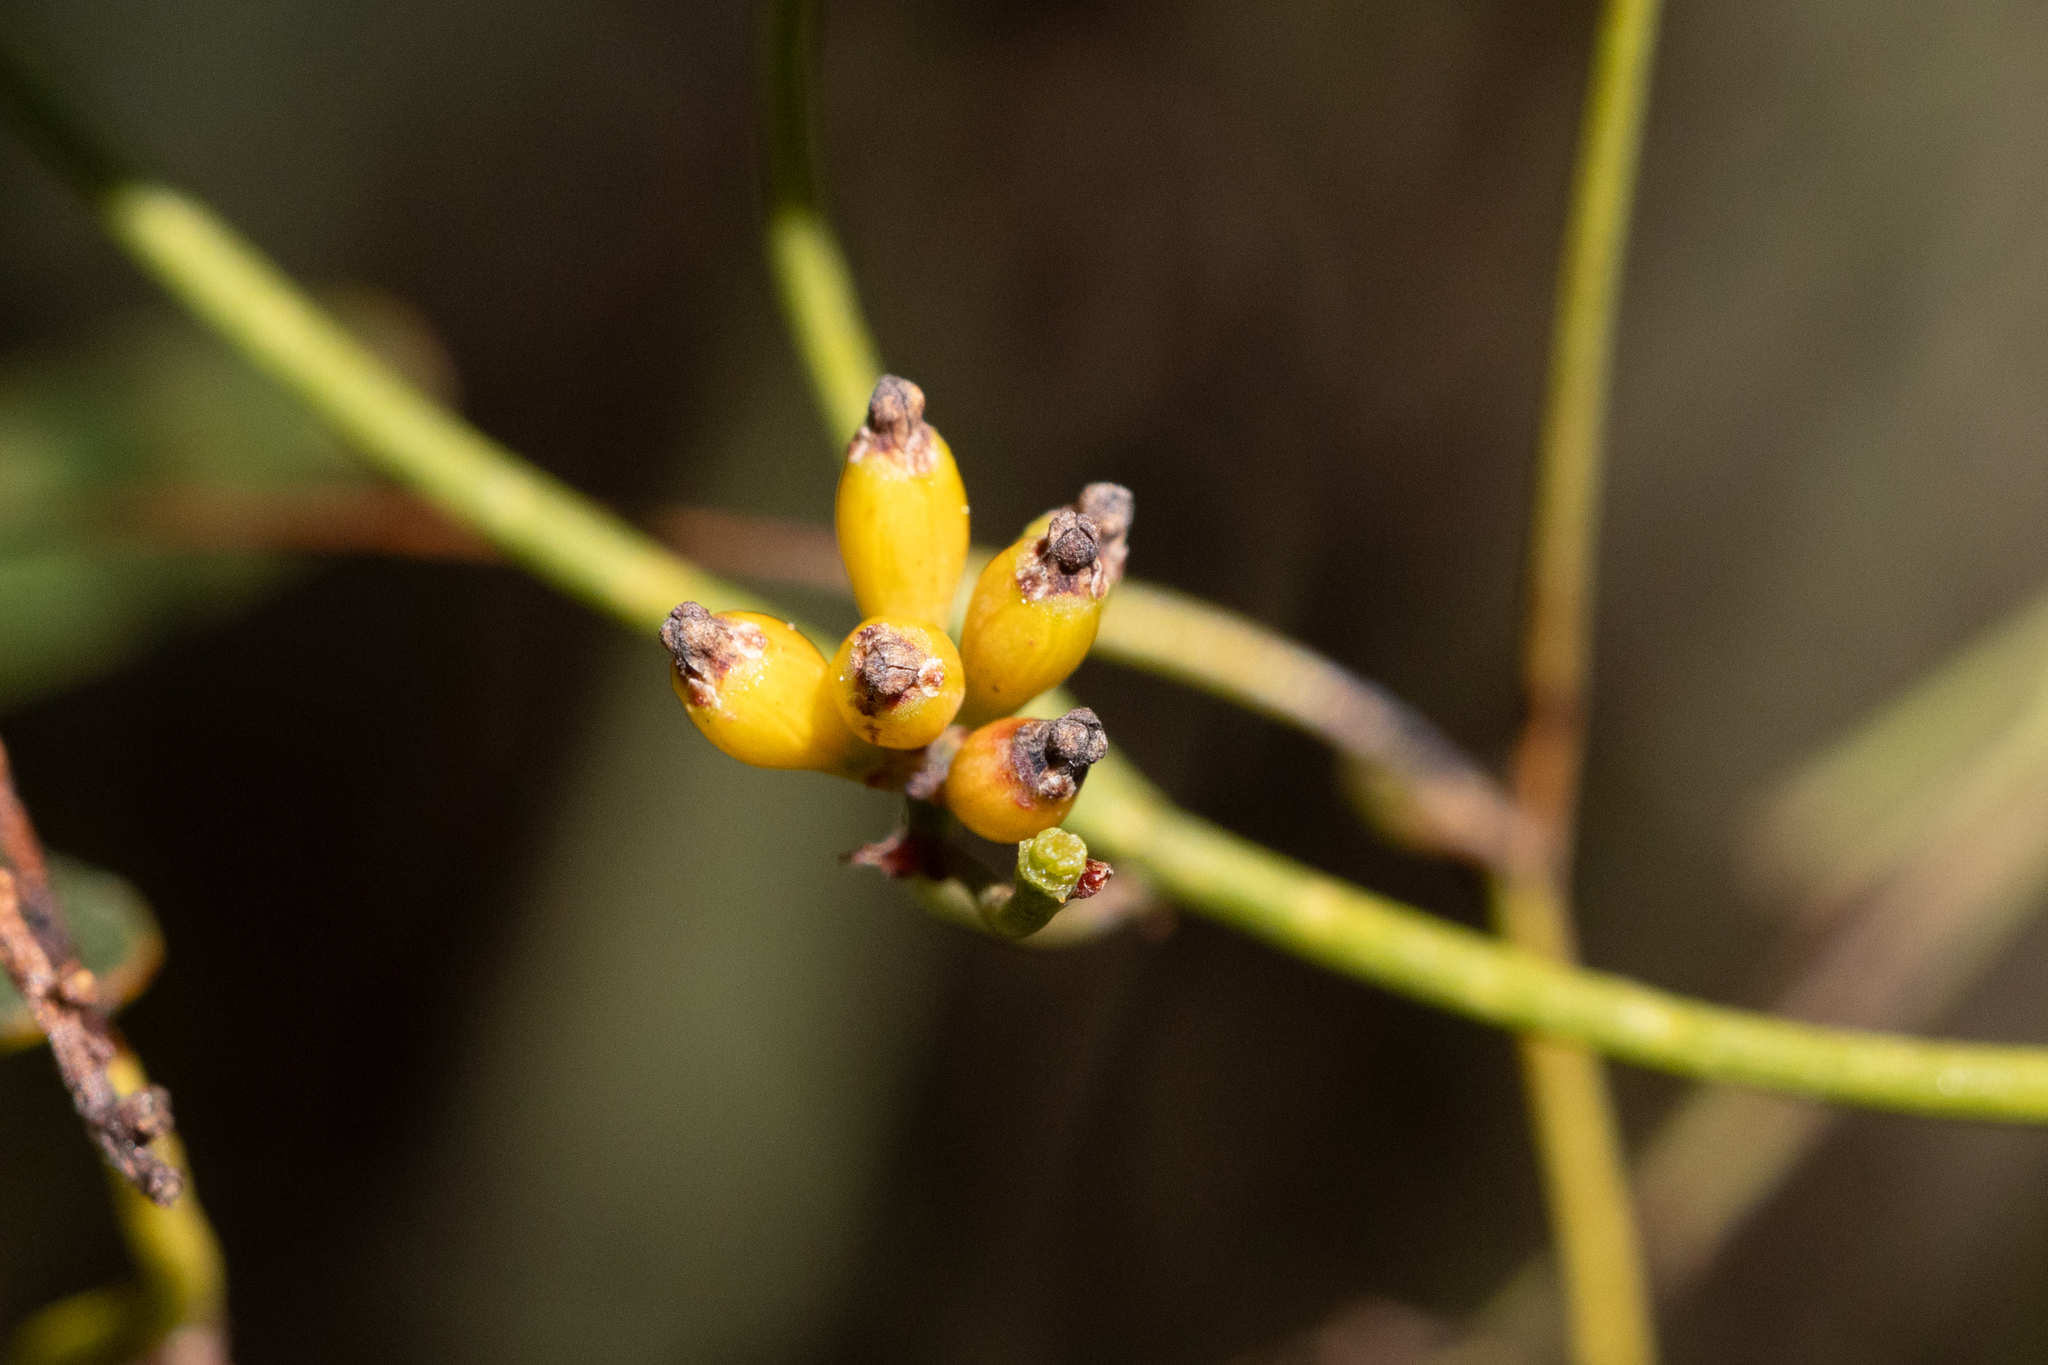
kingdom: Plantae
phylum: Tracheophyta
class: Magnoliopsida
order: Laurales
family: Lauraceae
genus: Cassytha
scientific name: Cassytha glabella
